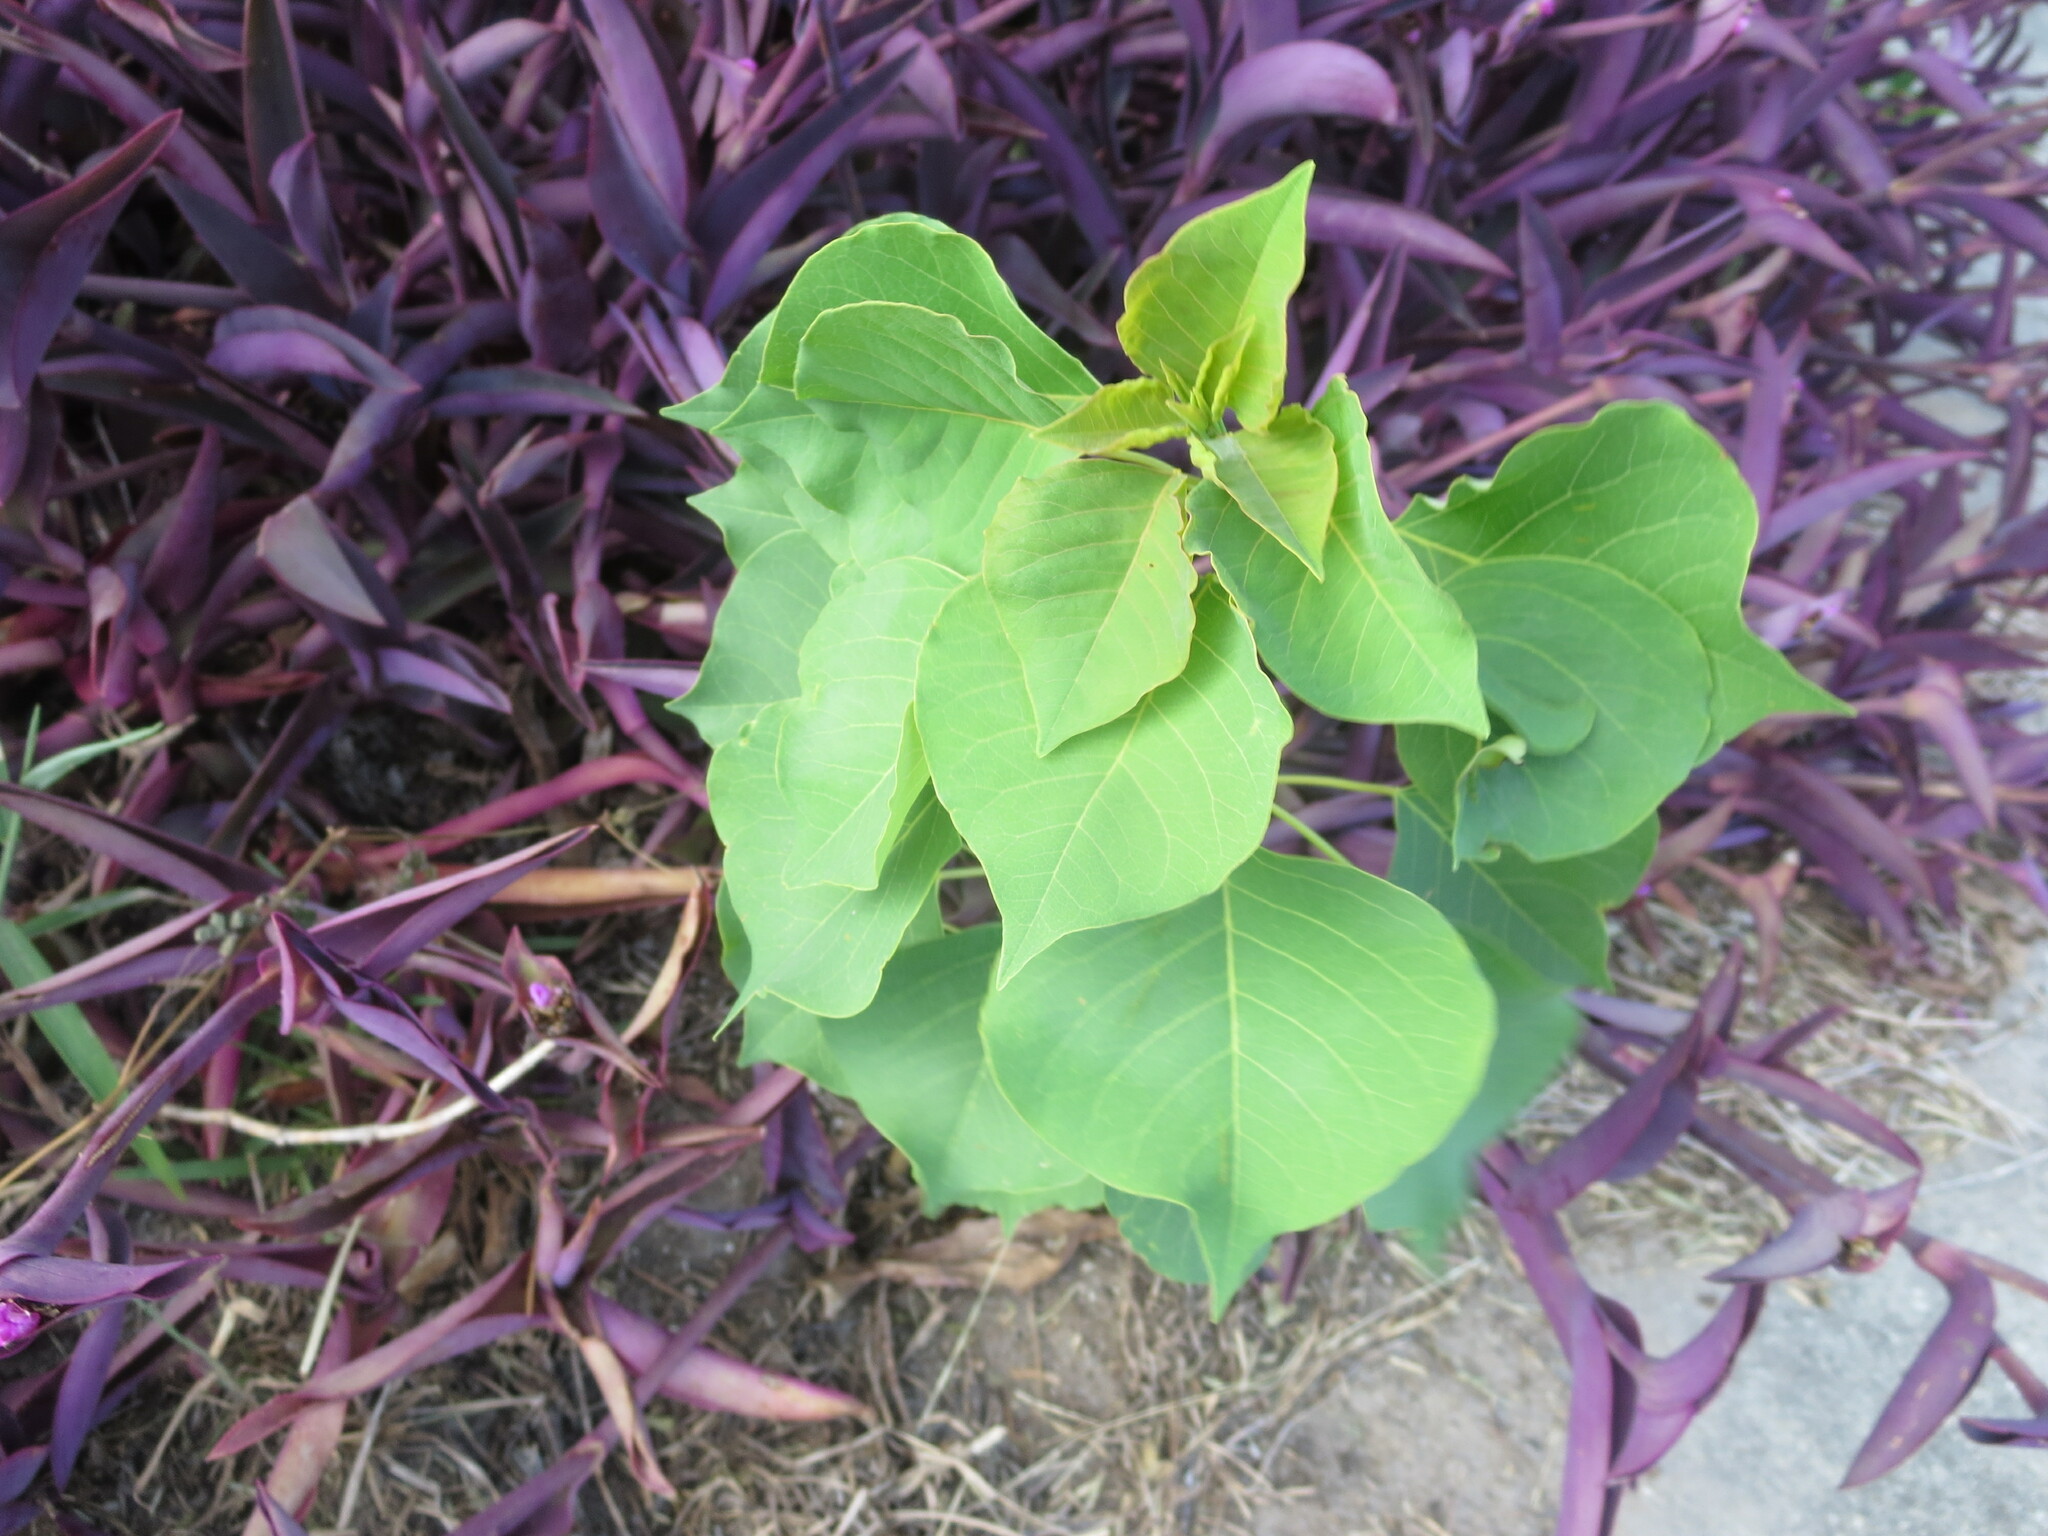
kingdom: Plantae
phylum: Tracheophyta
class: Magnoliopsida
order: Malpighiales
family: Euphorbiaceae
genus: Triadica
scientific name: Triadica sebifera
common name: Chinese tallow
